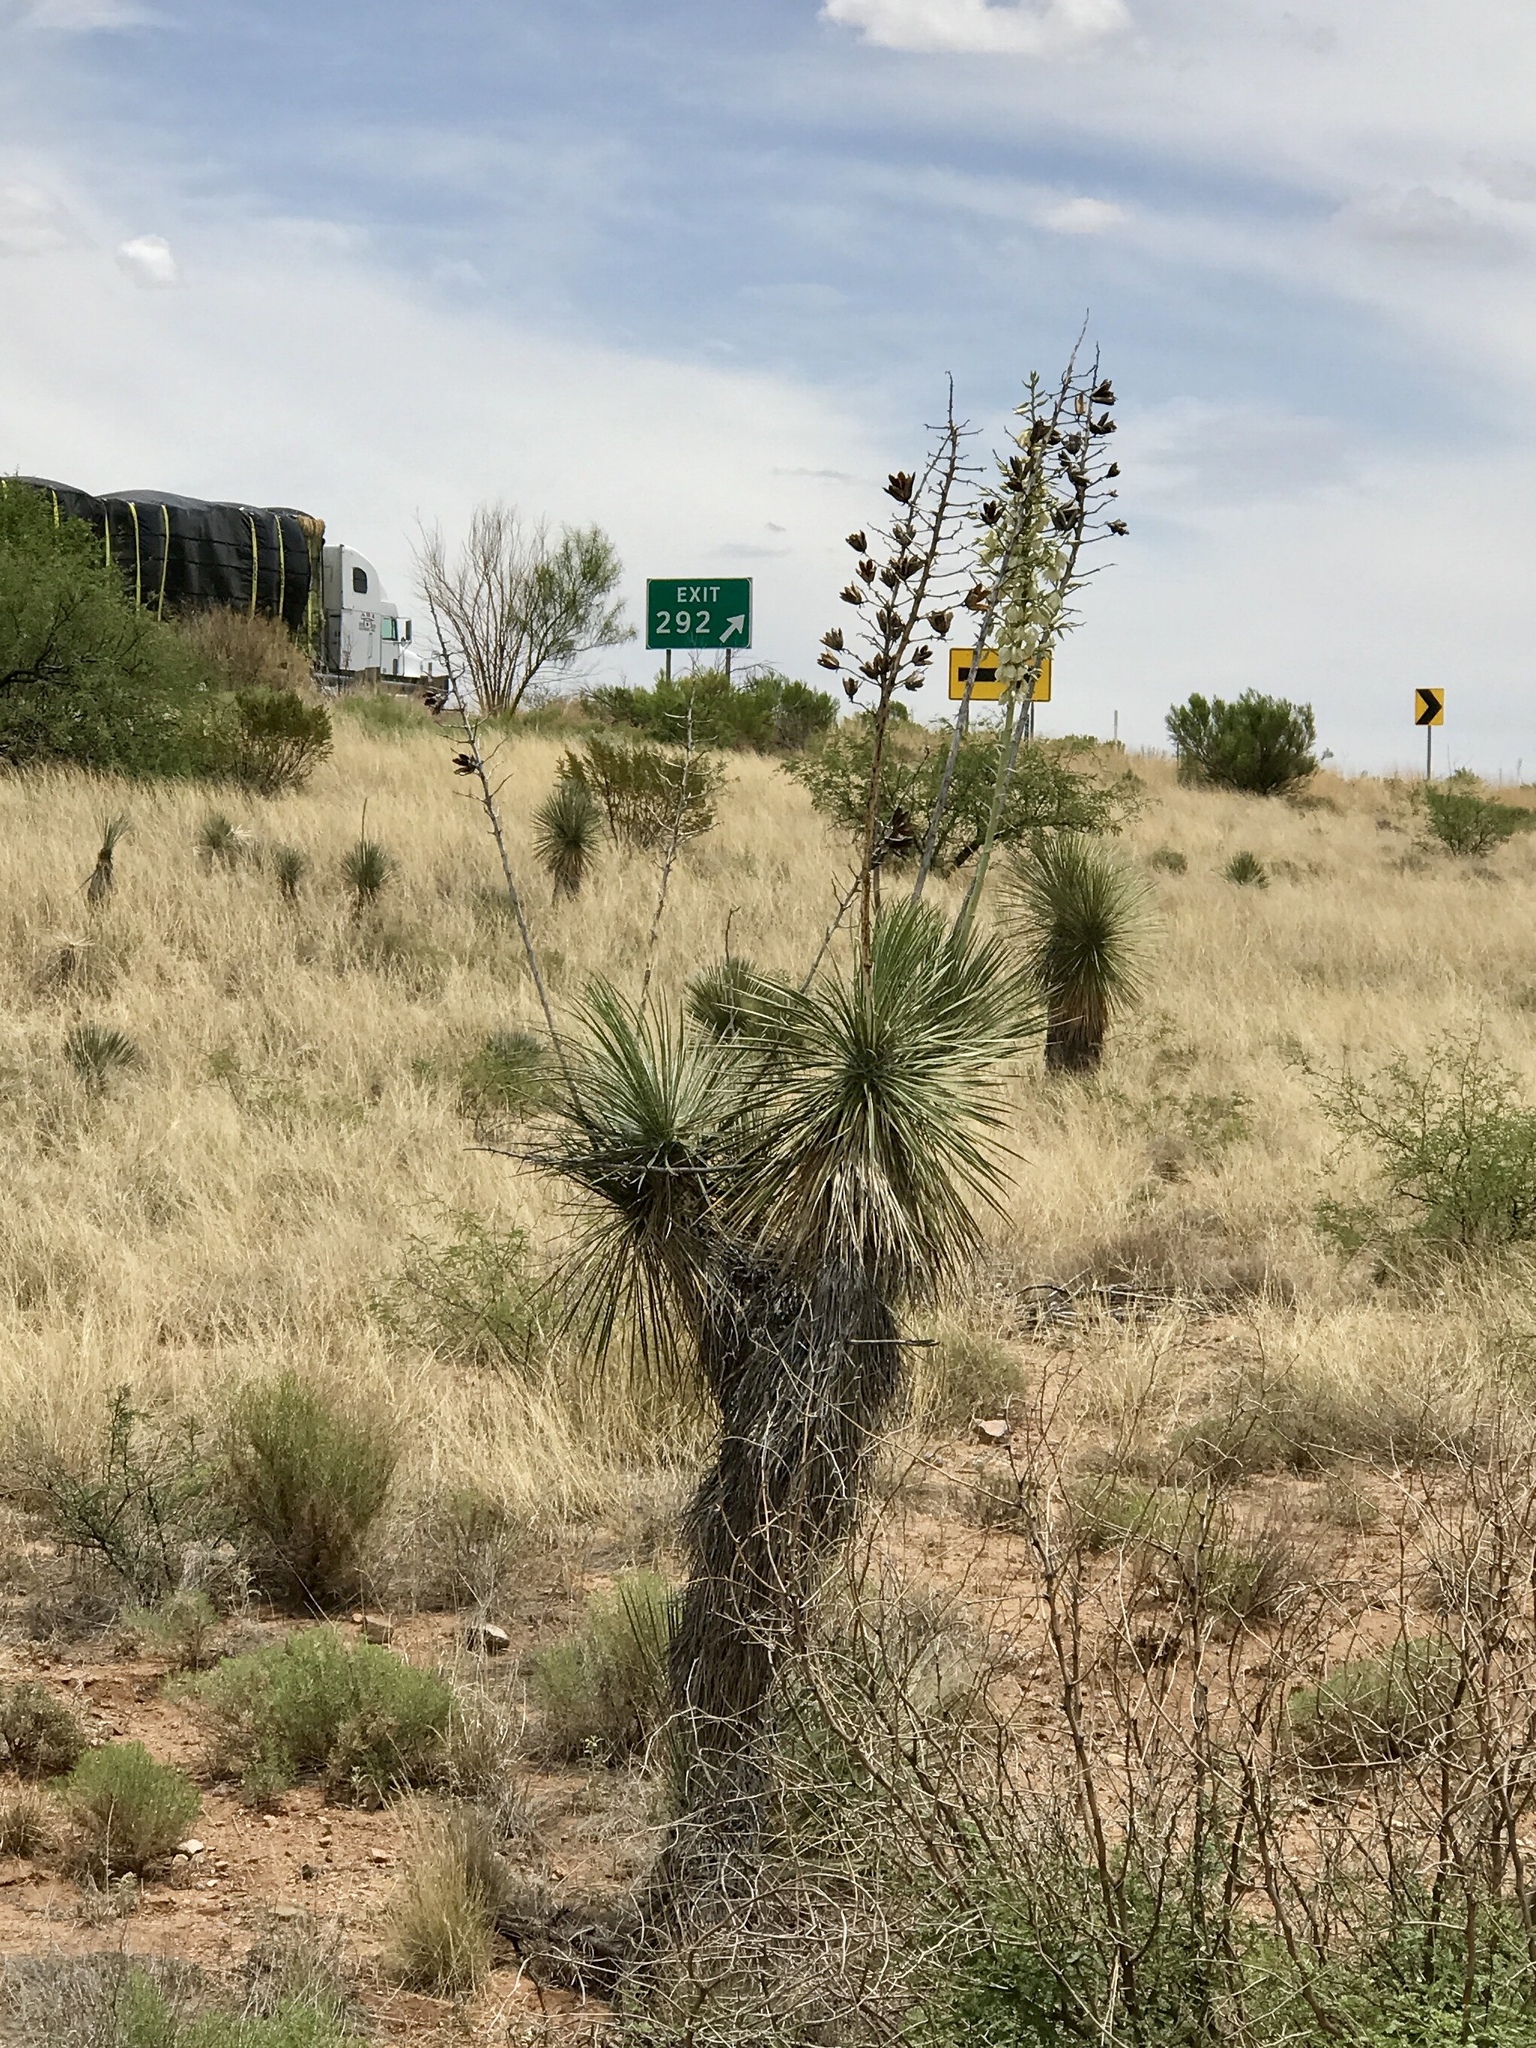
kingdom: Plantae
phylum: Tracheophyta
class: Liliopsida
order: Asparagales
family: Asparagaceae
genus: Yucca
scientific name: Yucca elata
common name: Palmella
